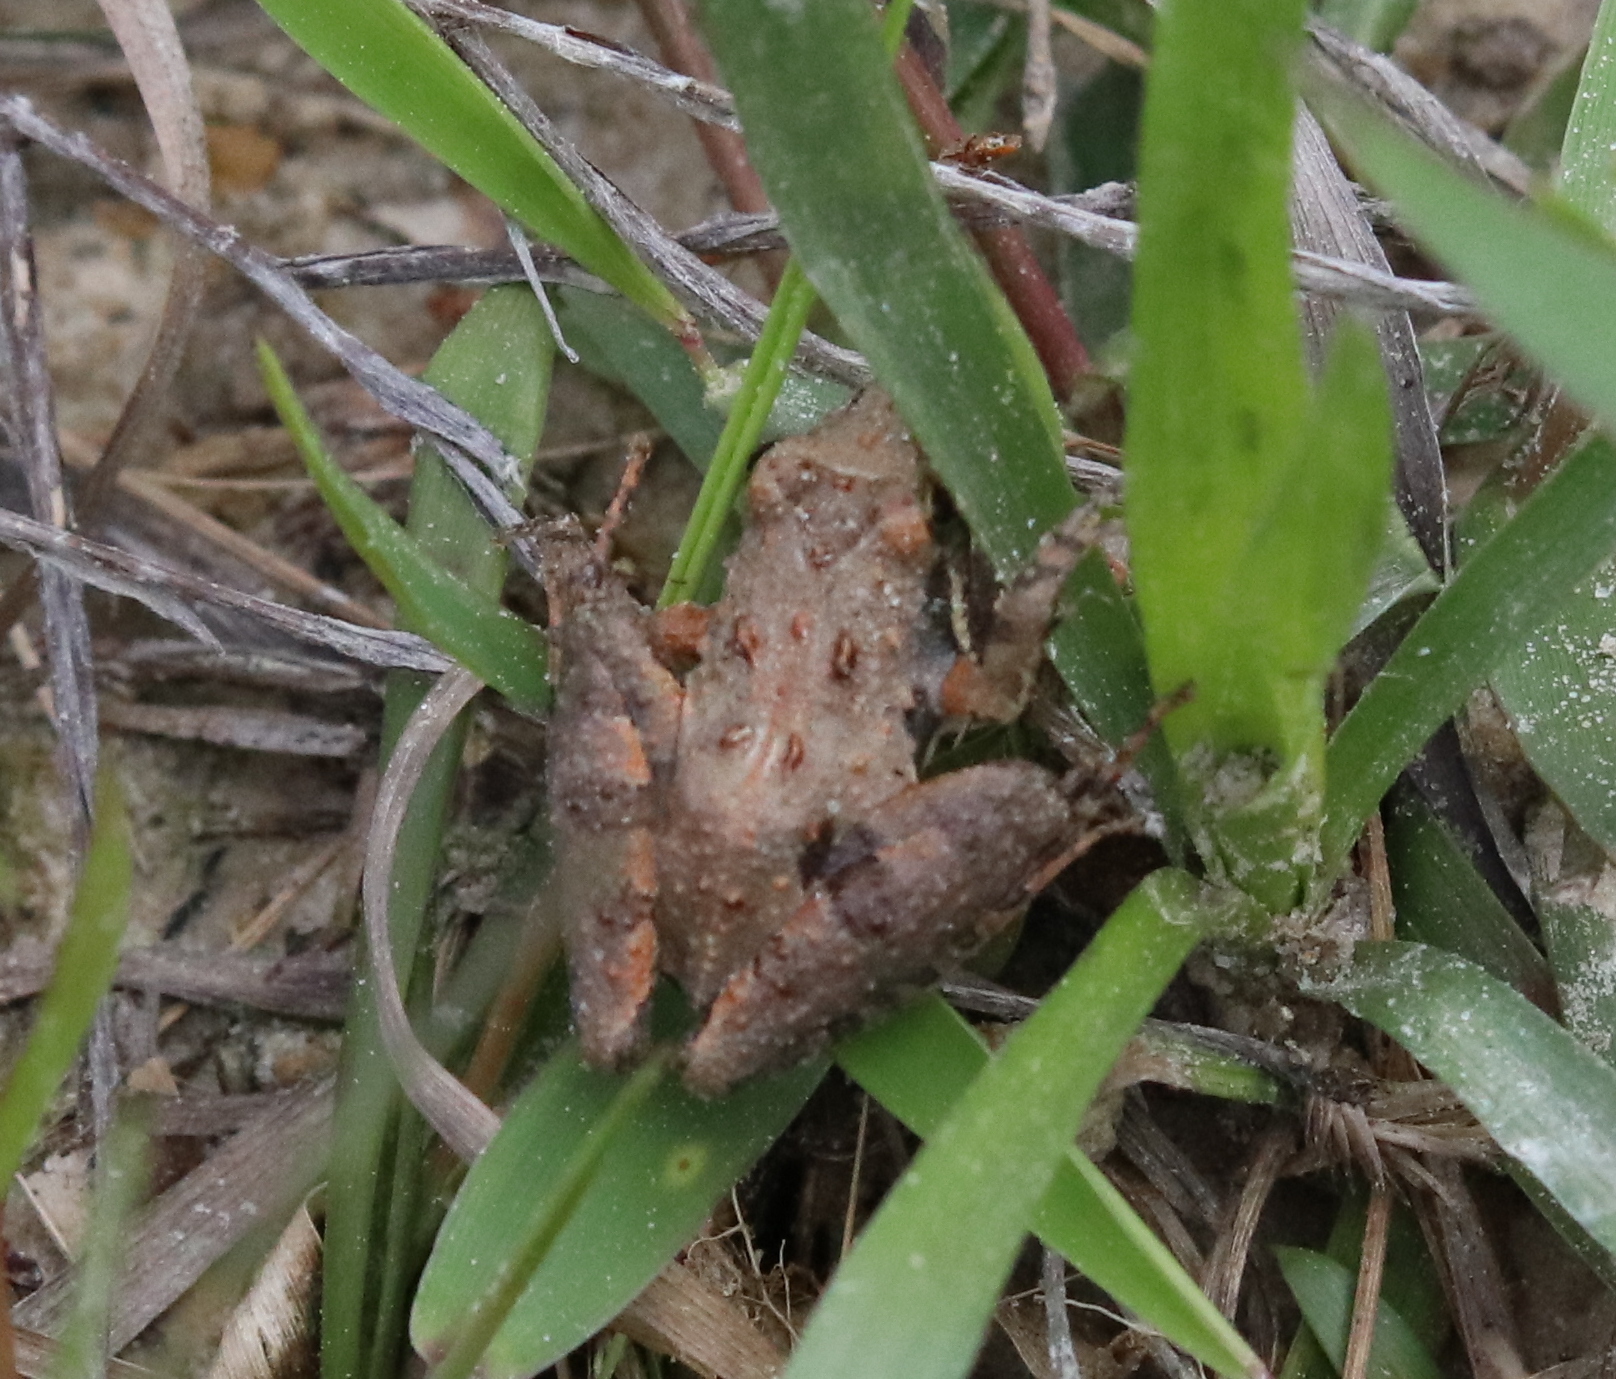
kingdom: Animalia
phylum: Chordata
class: Amphibia
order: Anura
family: Hylidae
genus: Acris
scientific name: Acris gryllus
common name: Southern cricket frog
